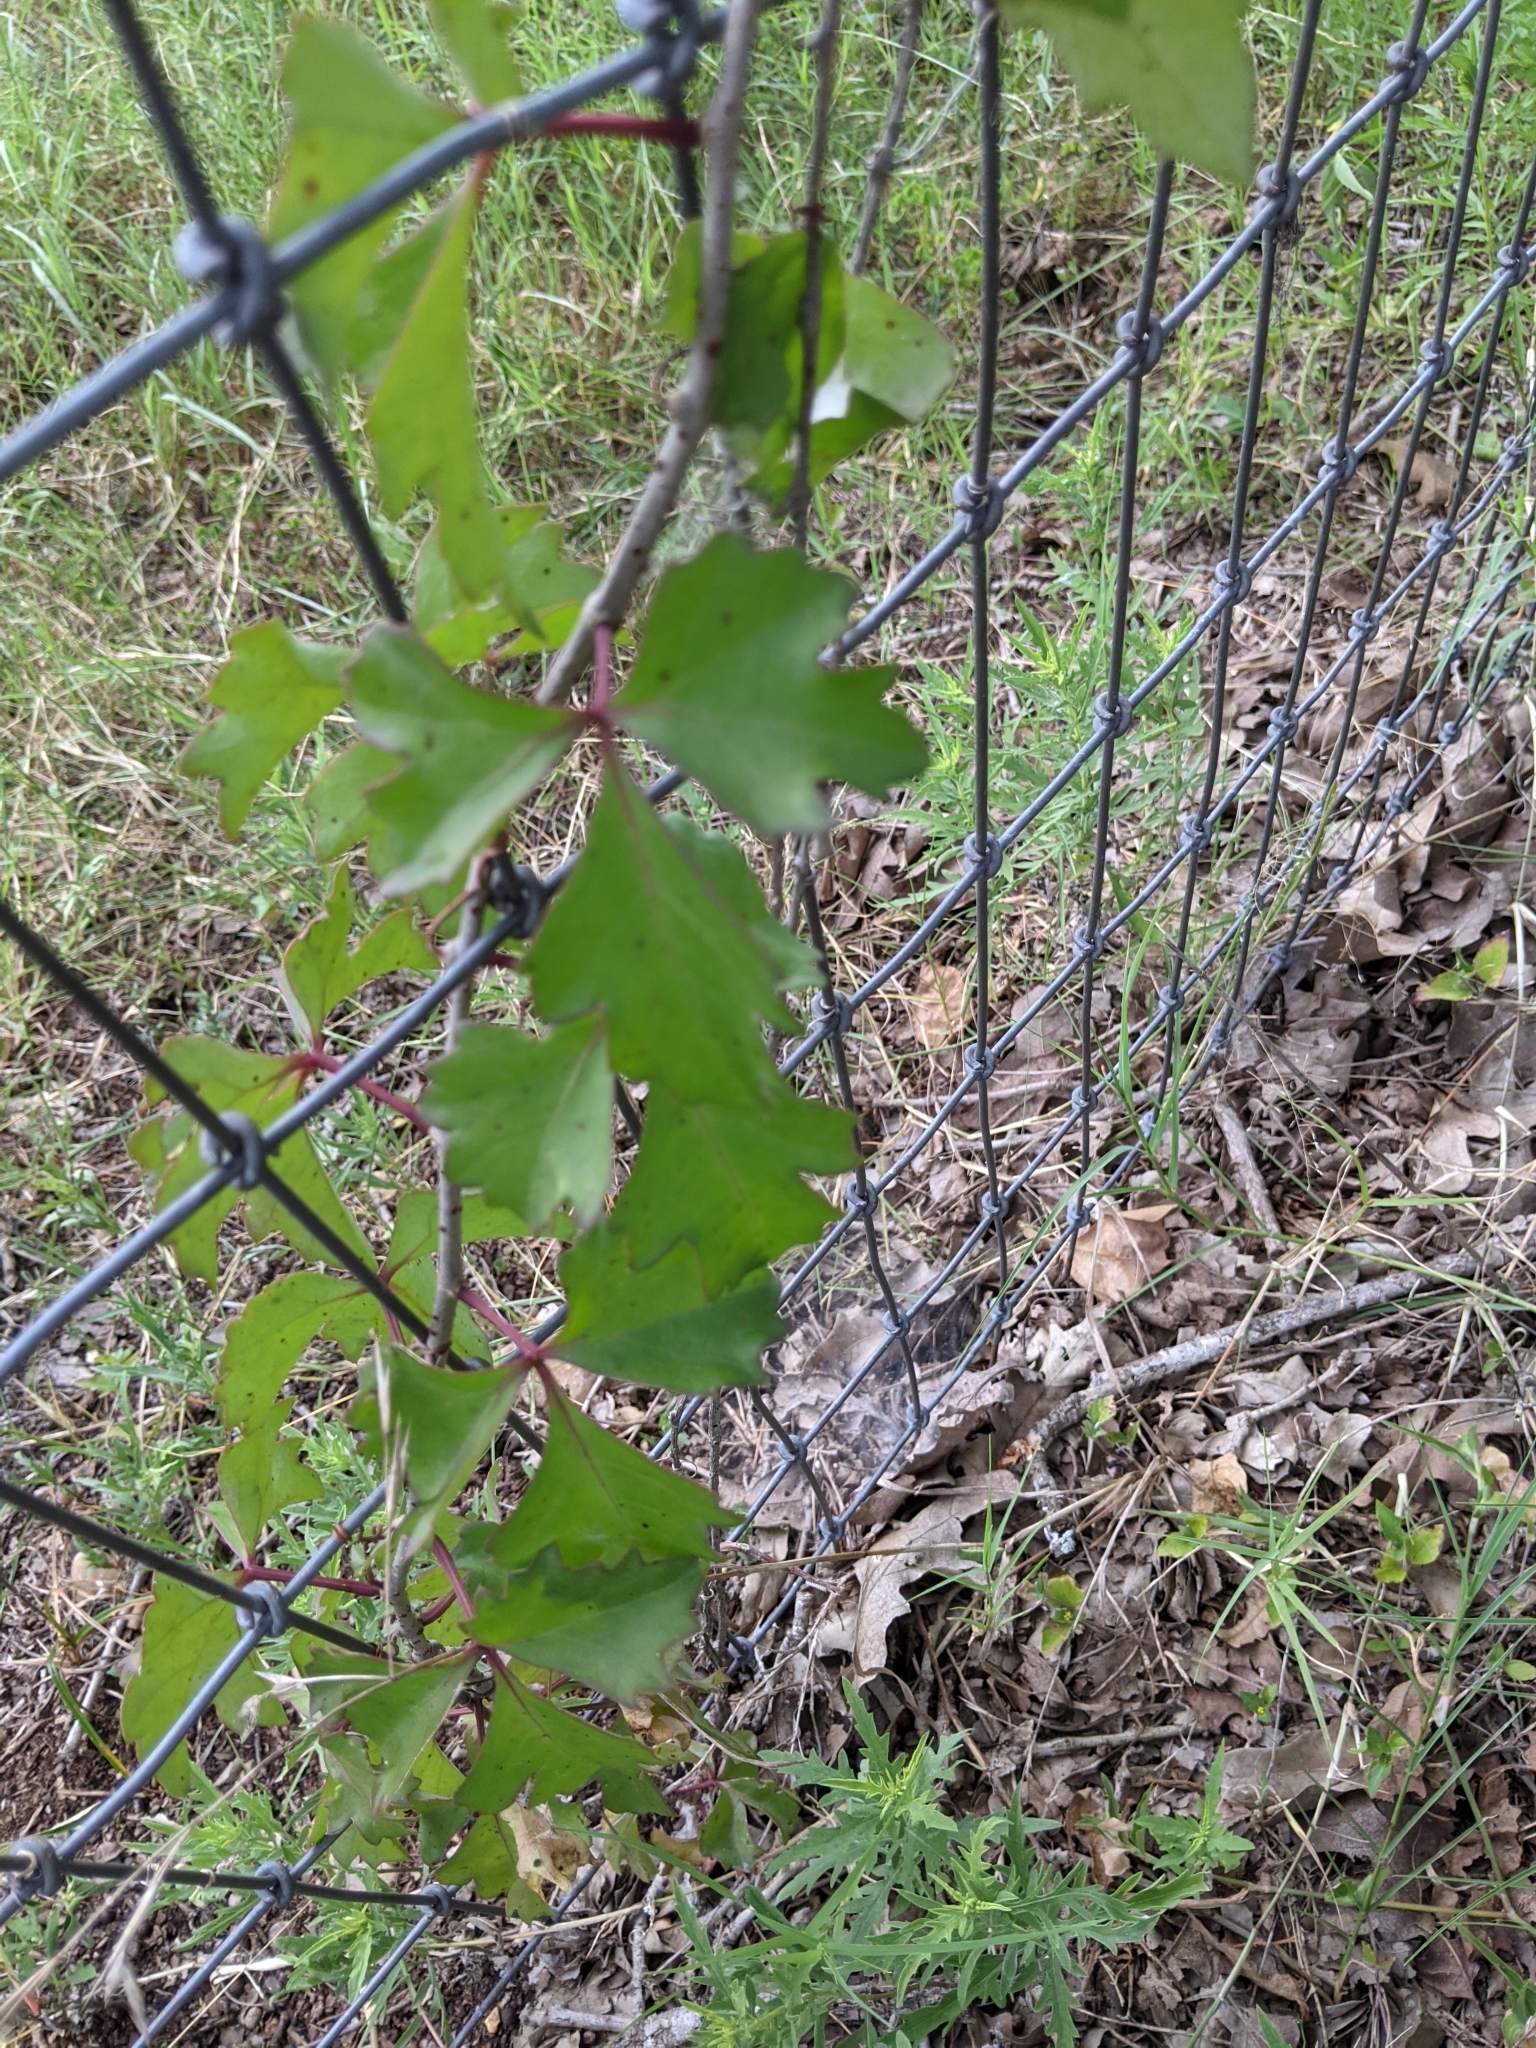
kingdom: Plantae
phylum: Tracheophyta
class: Magnoliopsida
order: Vitales
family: Vitaceae
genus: Cissus
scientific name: Cissus trifoliata
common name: Vine-sorrel
